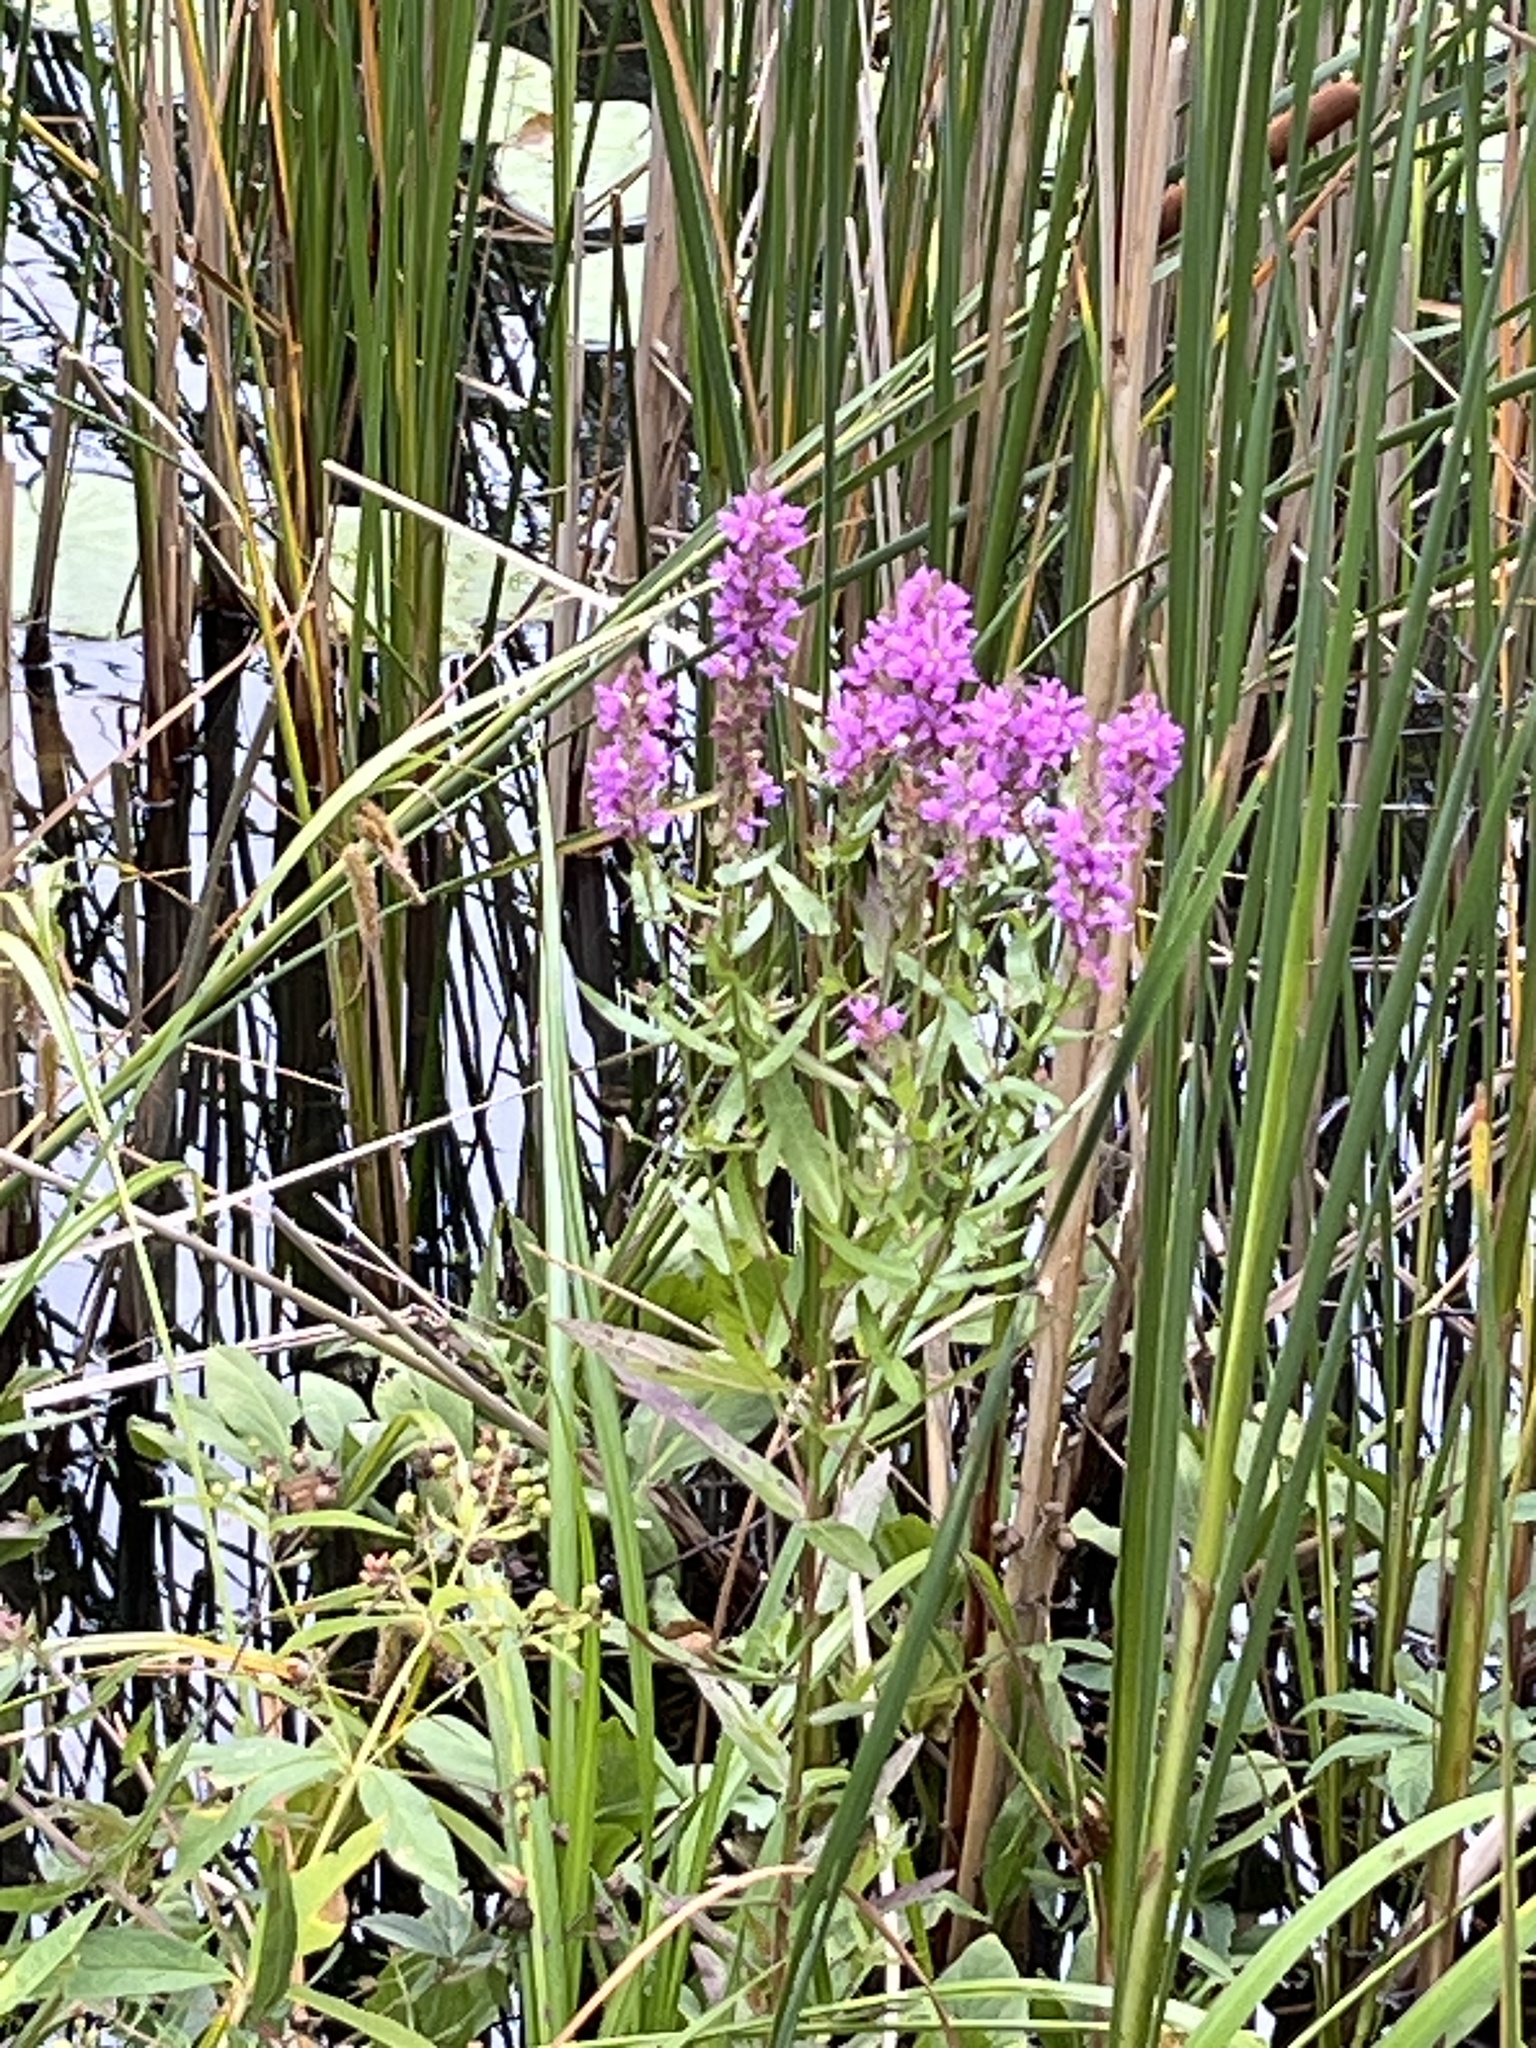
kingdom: Plantae
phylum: Tracheophyta
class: Magnoliopsida
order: Myrtales
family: Lythraceae
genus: Lythrum
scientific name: Lythrum salicaria
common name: Purple loosestrife
